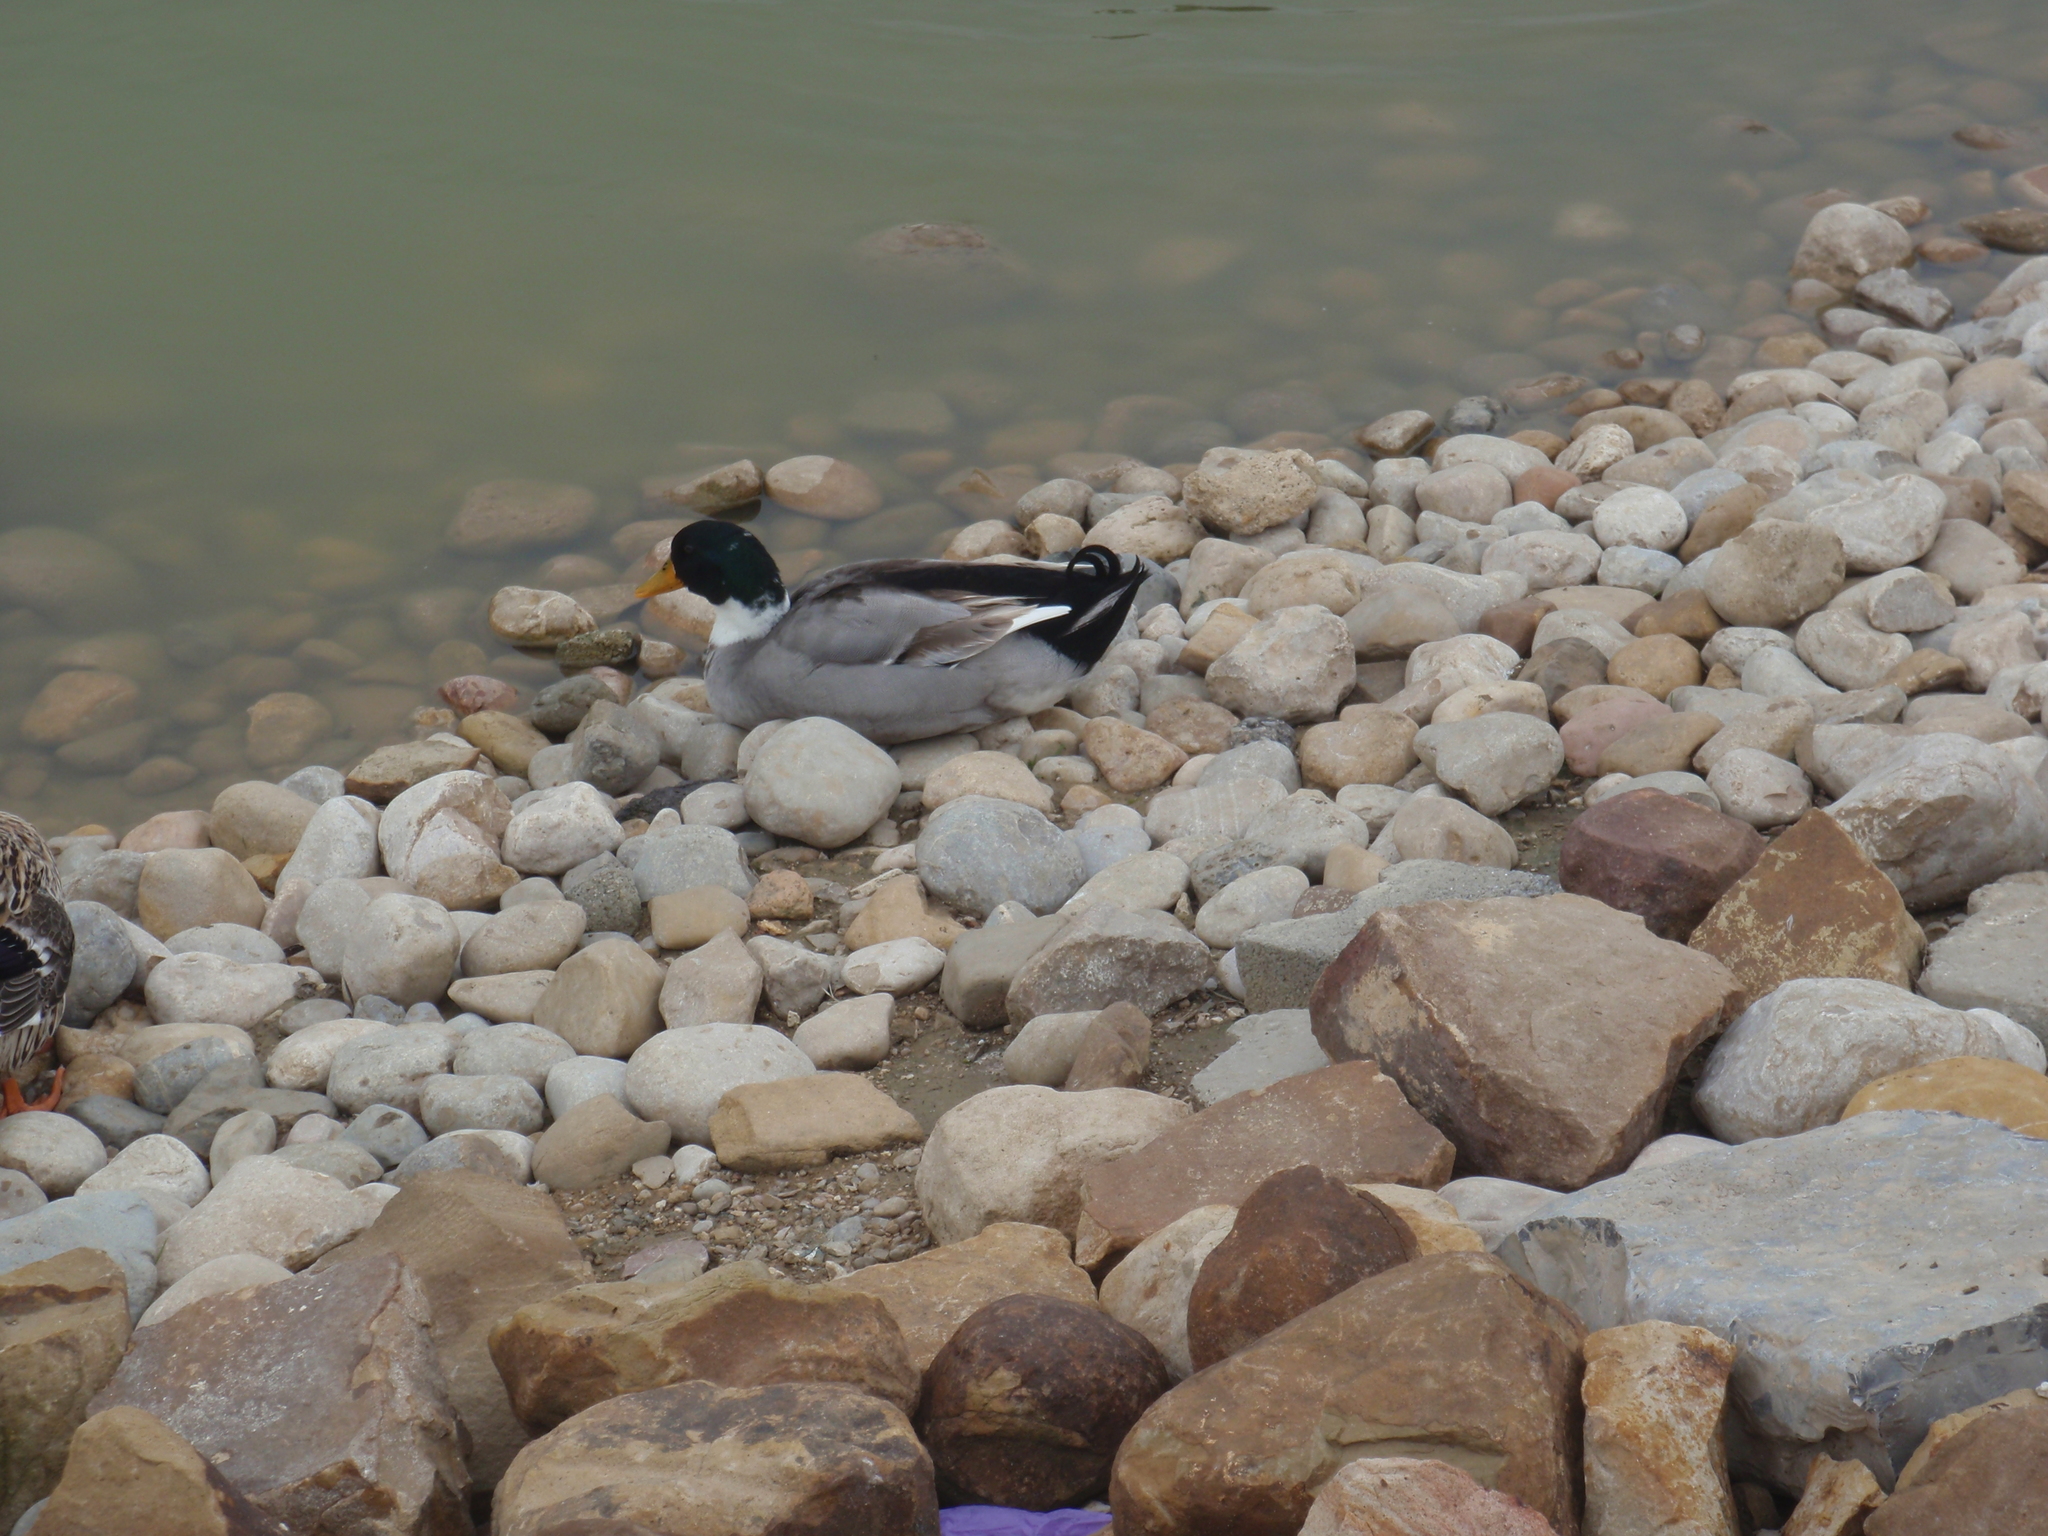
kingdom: Animalia
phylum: Chordata
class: Aves
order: Anseriformes
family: Anatidae
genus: Anas
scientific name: Anas platyrhynchos
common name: Mallard
